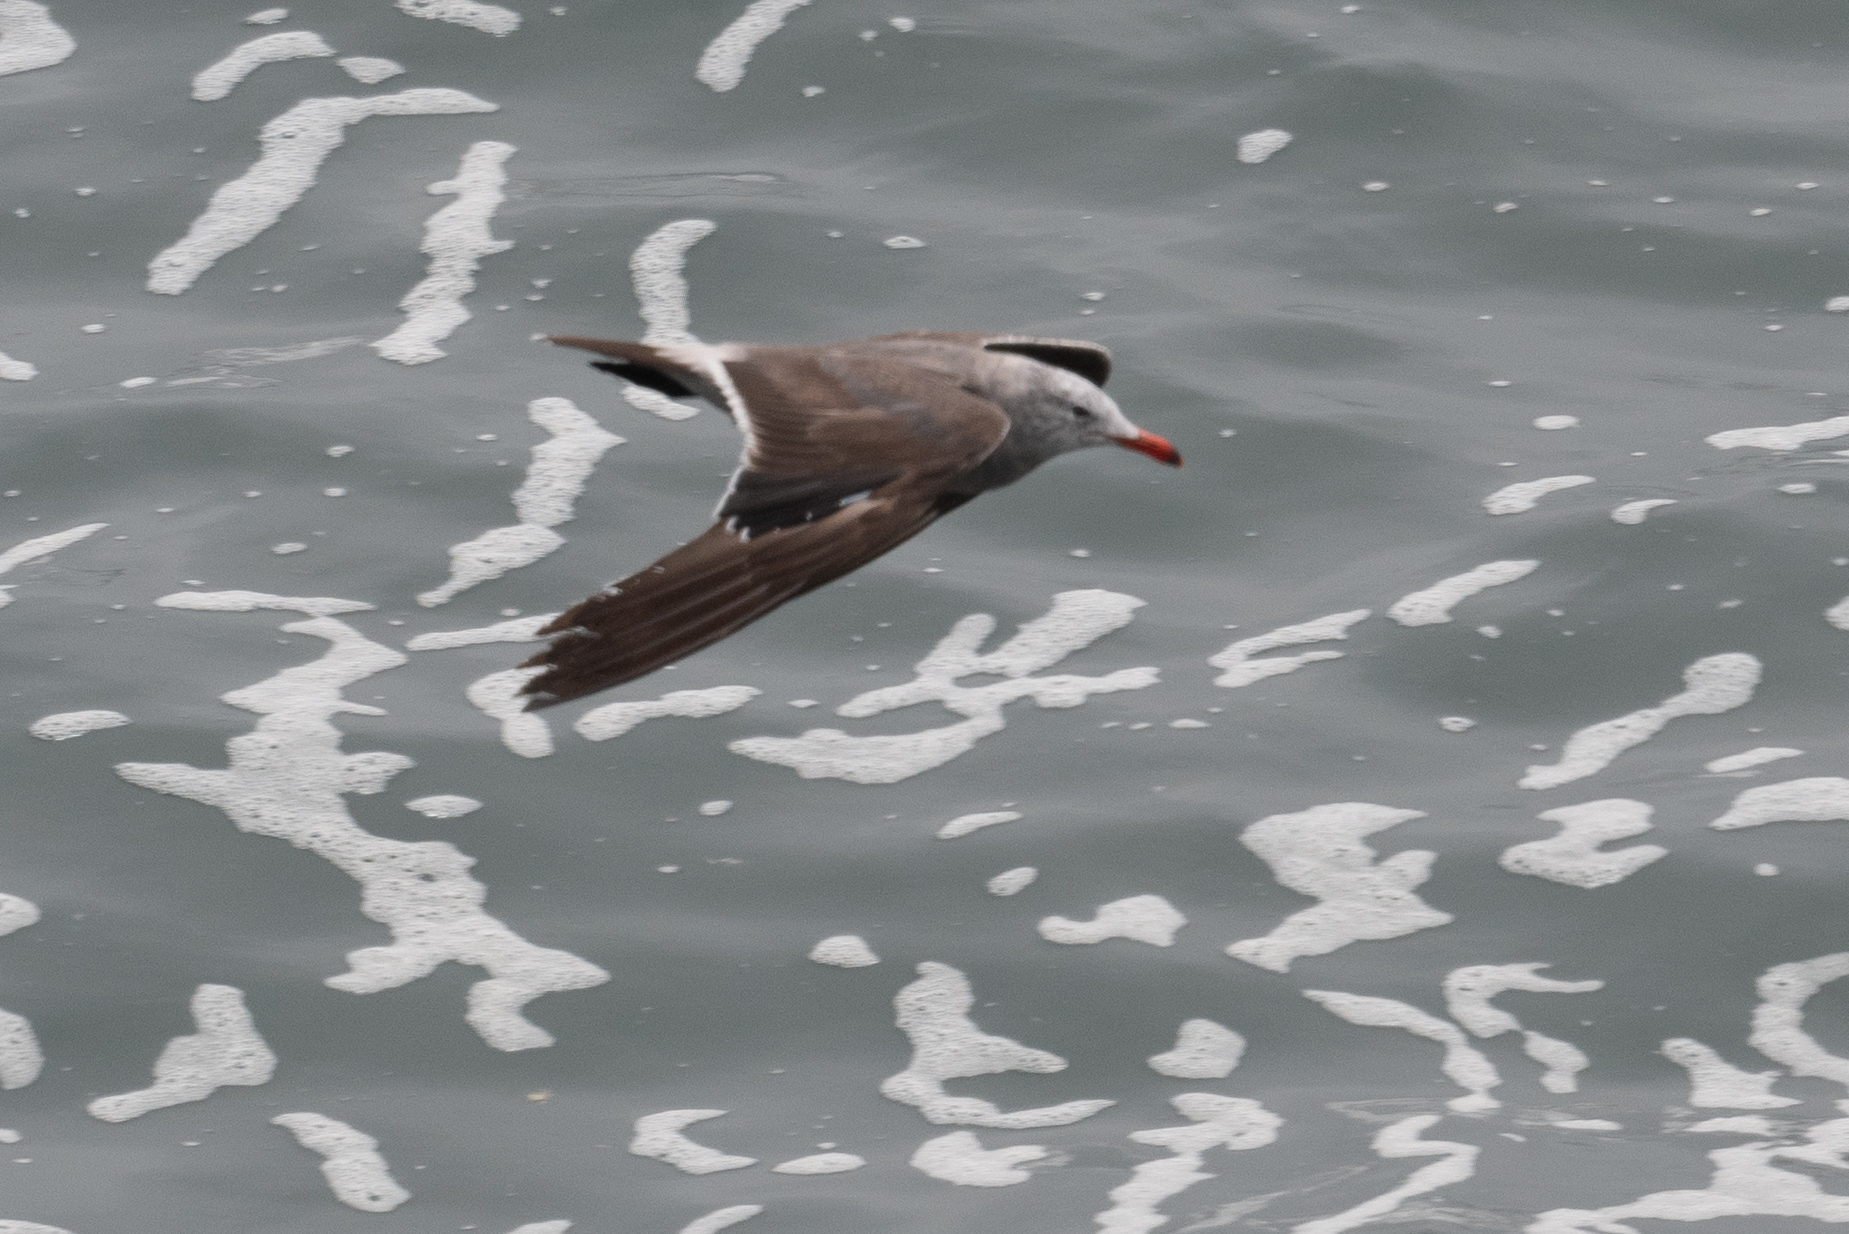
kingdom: Animalia
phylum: Chordata
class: Aves
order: Charadriiformes
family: Laridae
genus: Larus
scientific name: Larus heermanni
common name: Heermann's gull
